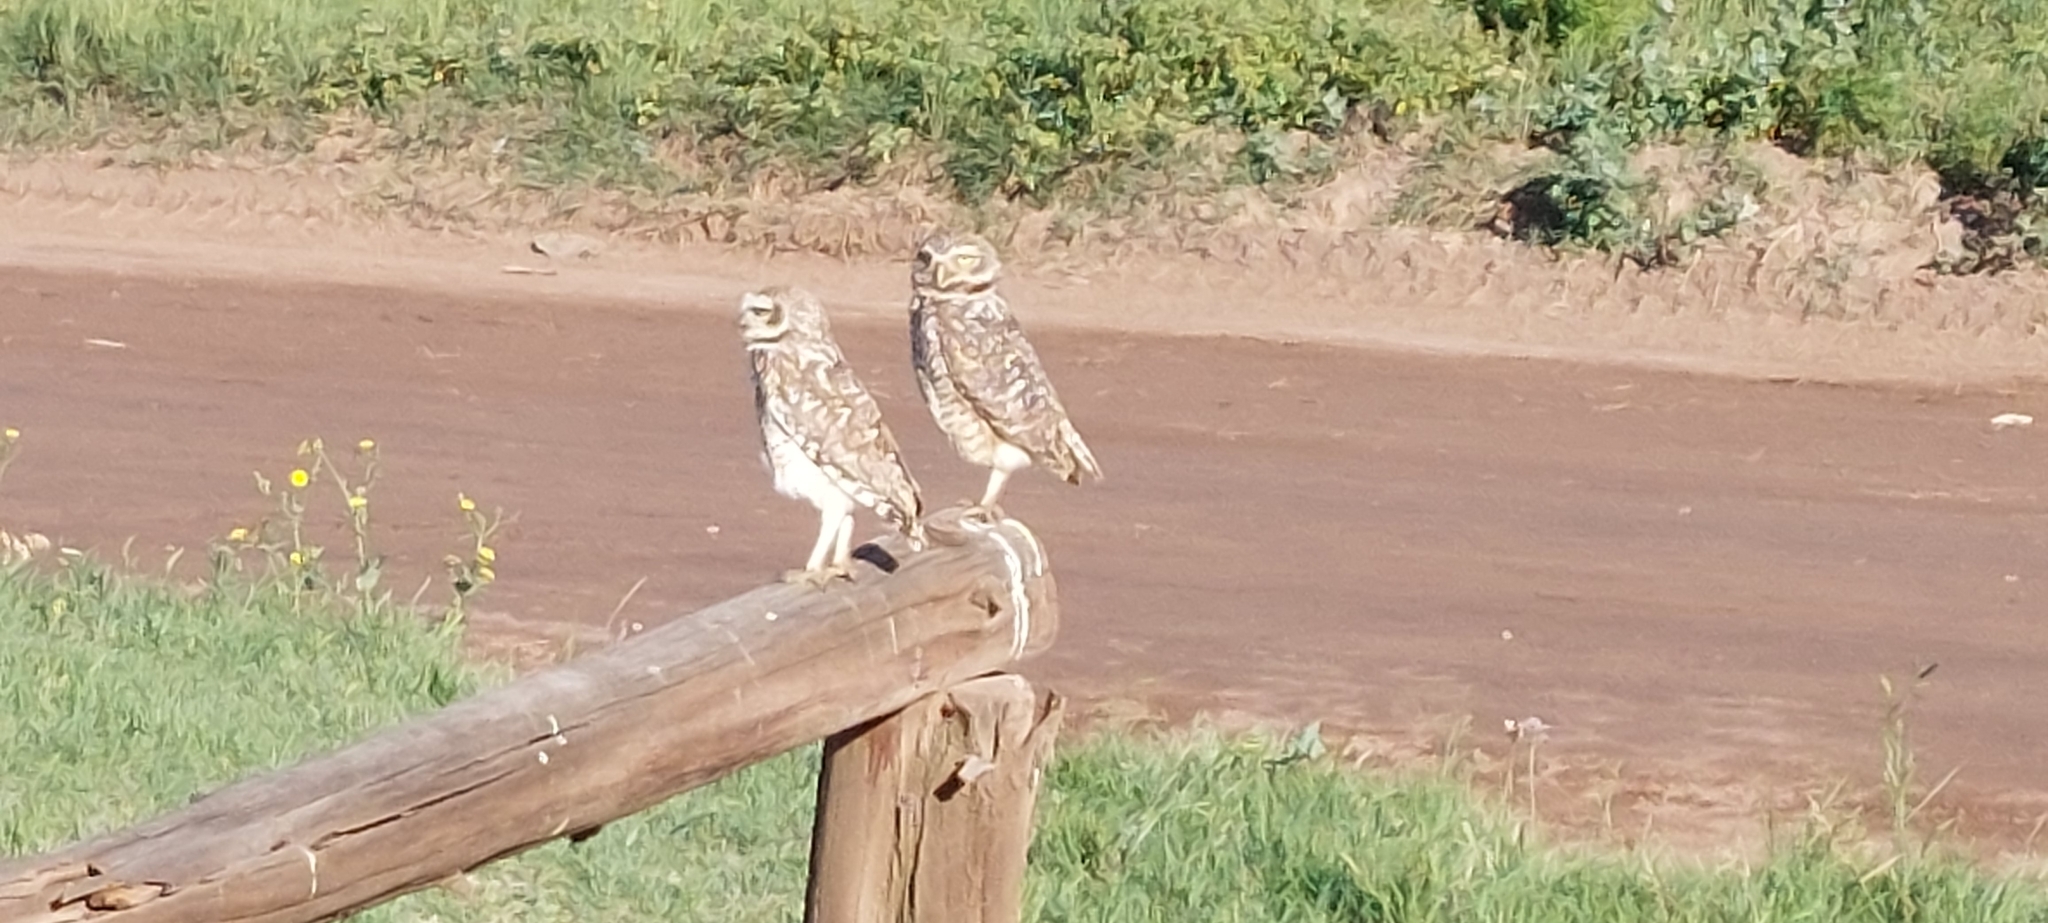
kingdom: Animalia
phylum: Chordata
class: Aves
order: Strigiformes
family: Strigidae
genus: Athene
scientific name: Athene cunicularia
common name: Burrowing owl
